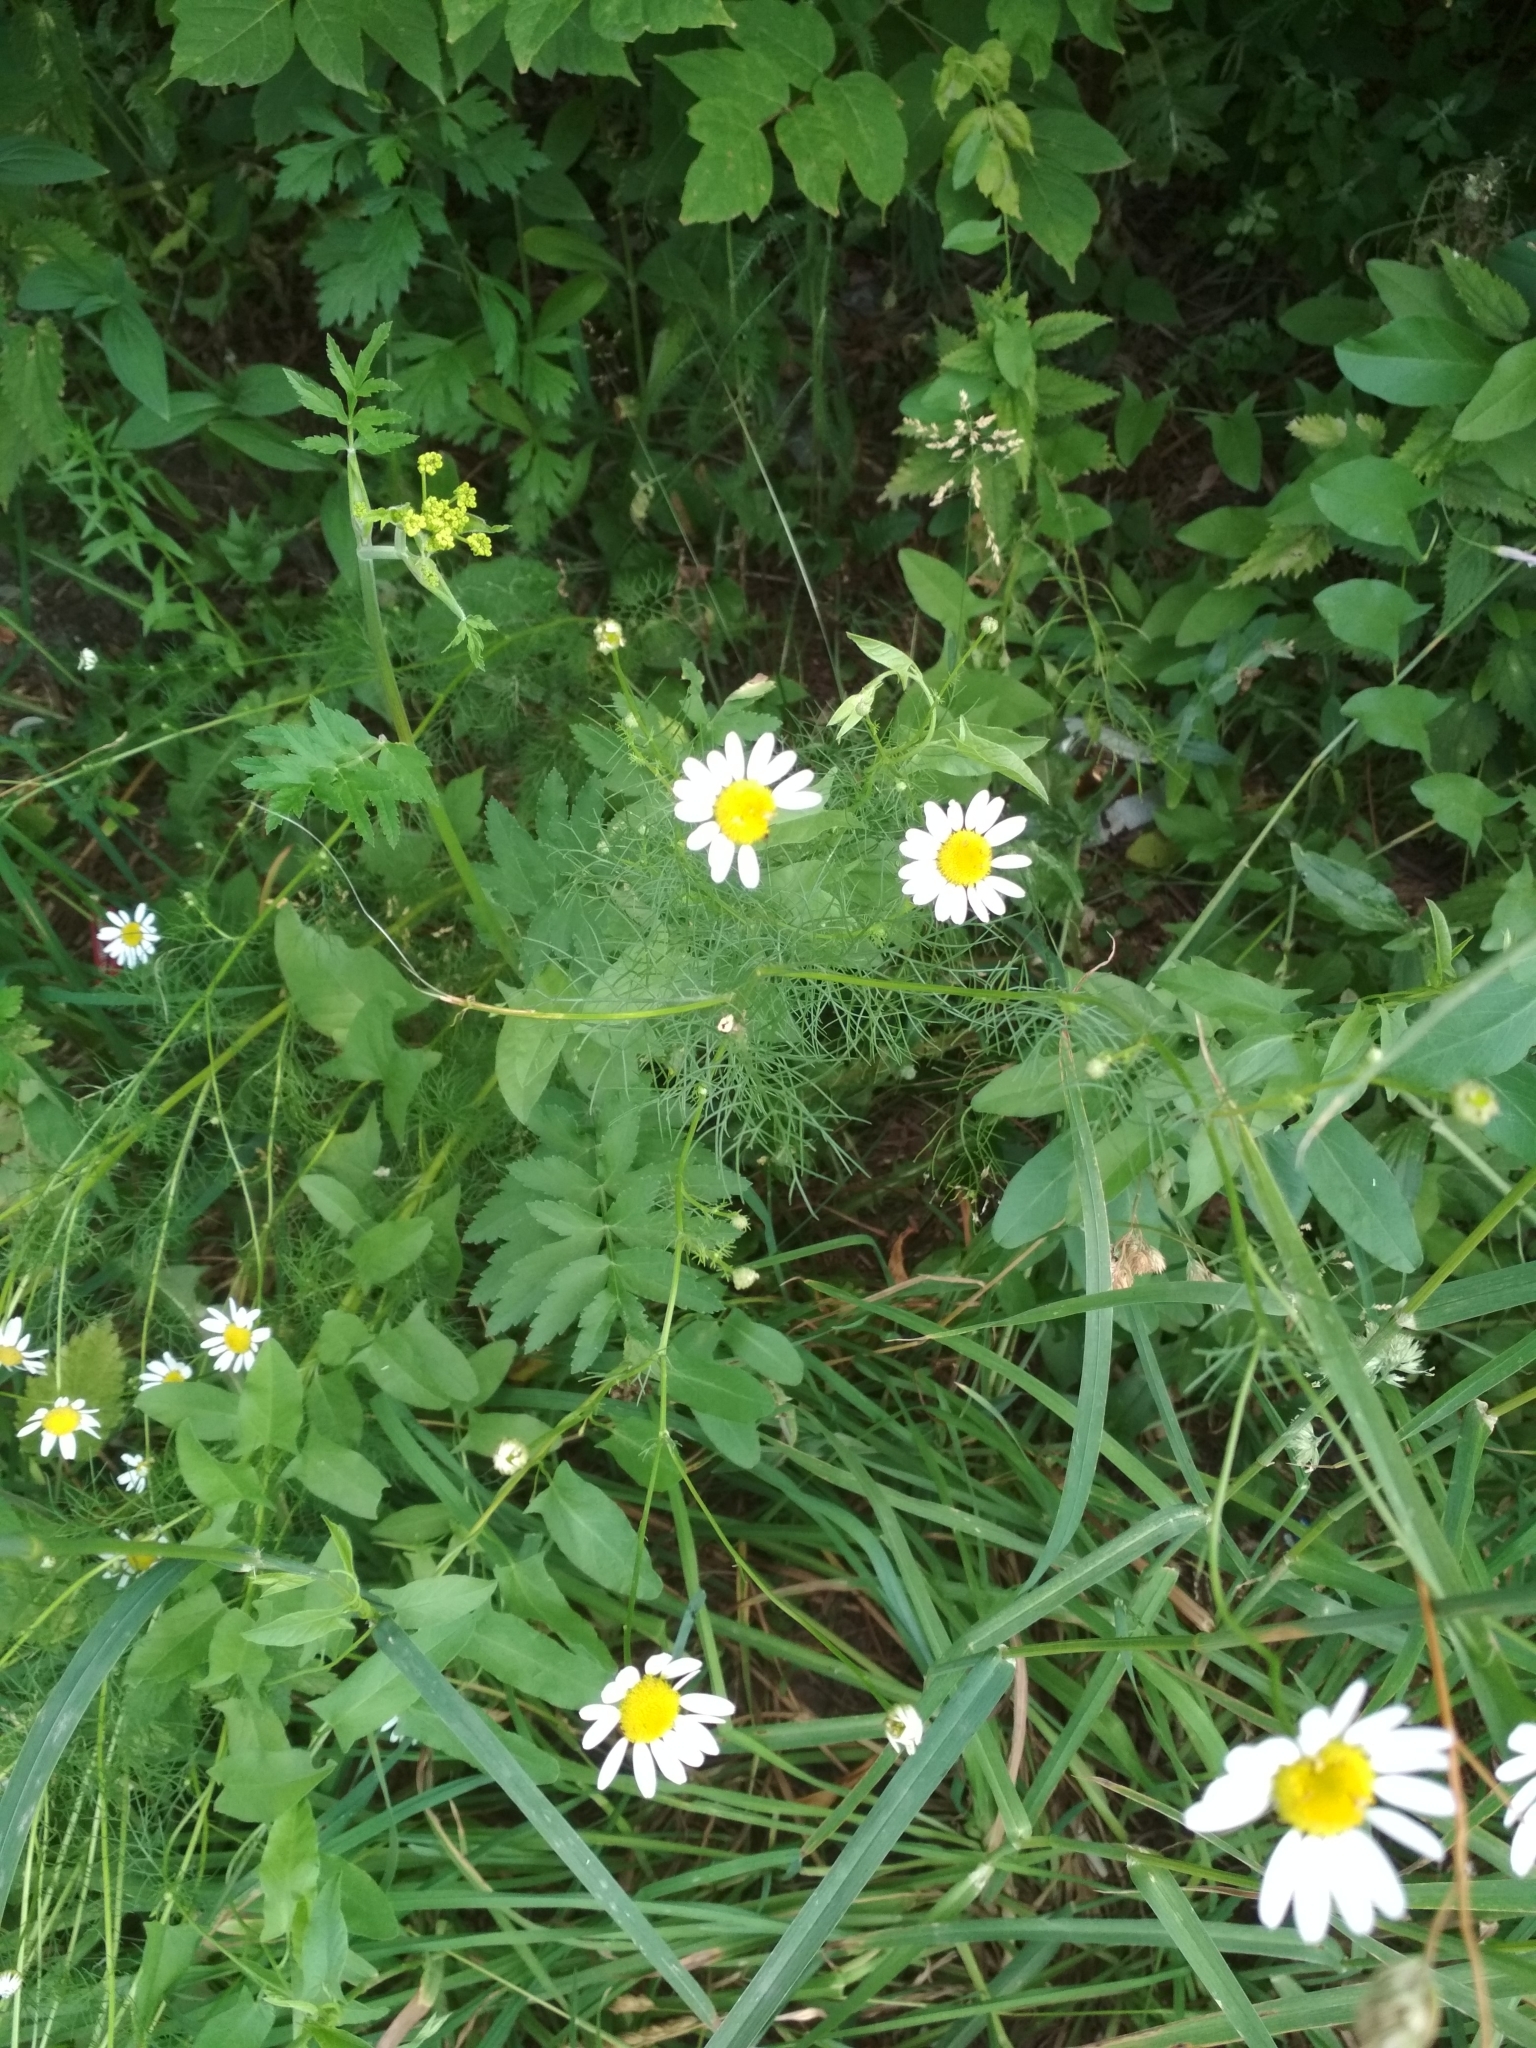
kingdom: Plantae
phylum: Tracheophyta
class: Magnoliopsida
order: Asterales
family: Asteraceae
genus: Tripleurospermum
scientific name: Tripleurospermum inodorum
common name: Scentless mayweed
